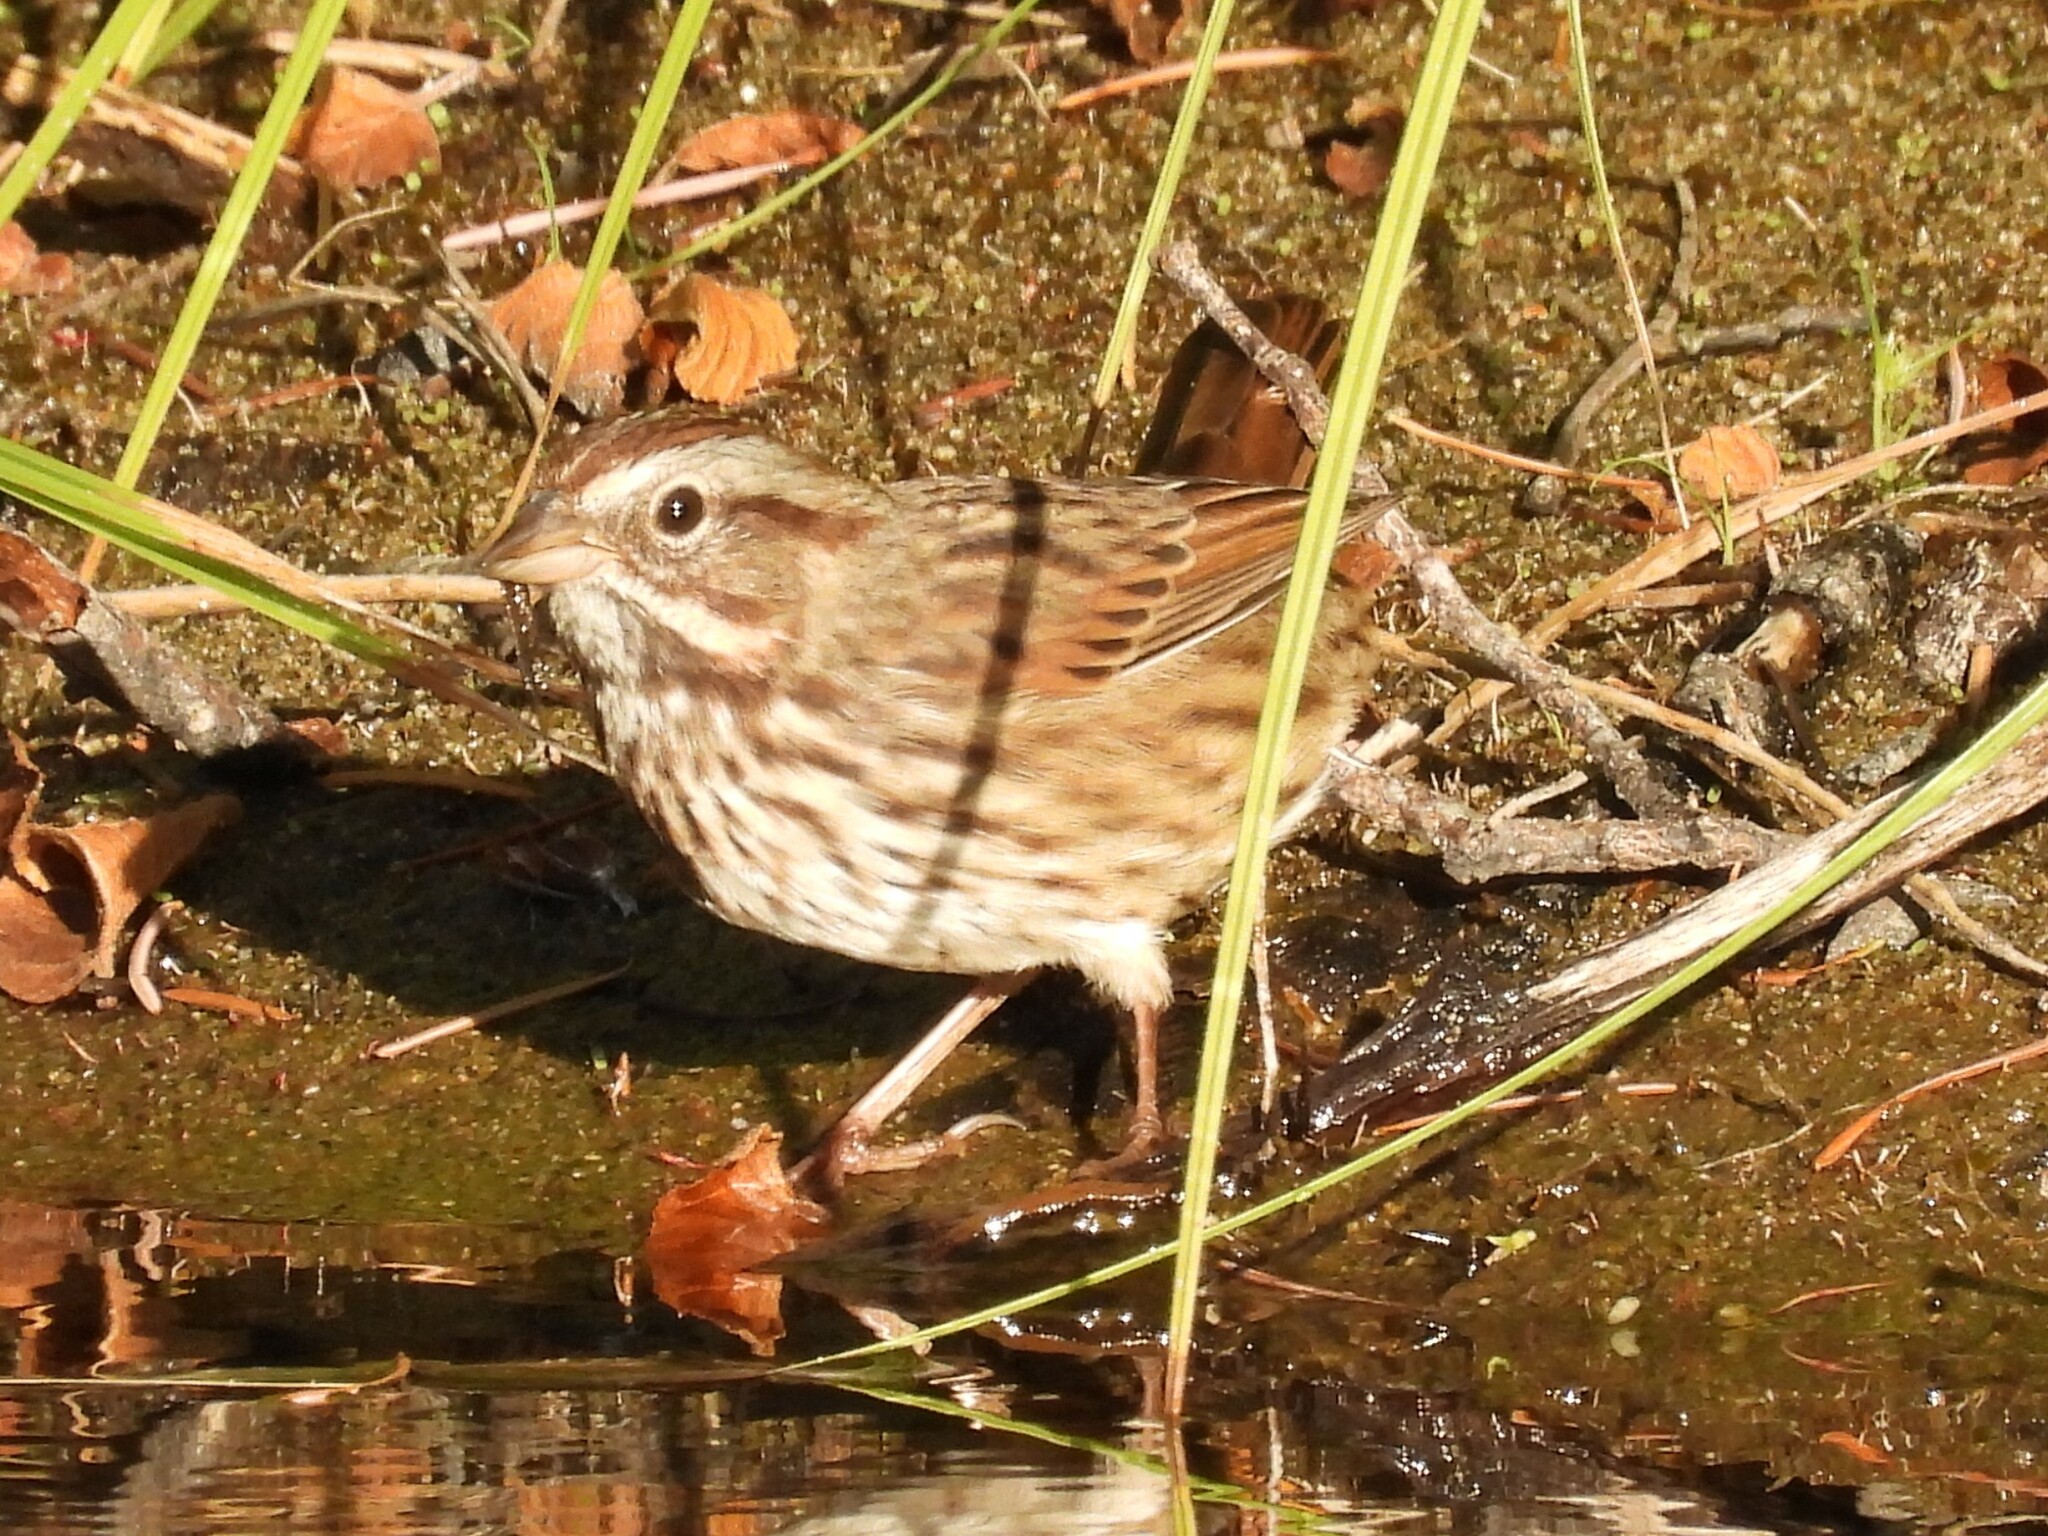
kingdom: Animalia
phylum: Chordata
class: Aves
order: Passeriformes
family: Passerellidae
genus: Melospiza
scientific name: Melospiza melodia
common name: Song sparrow
